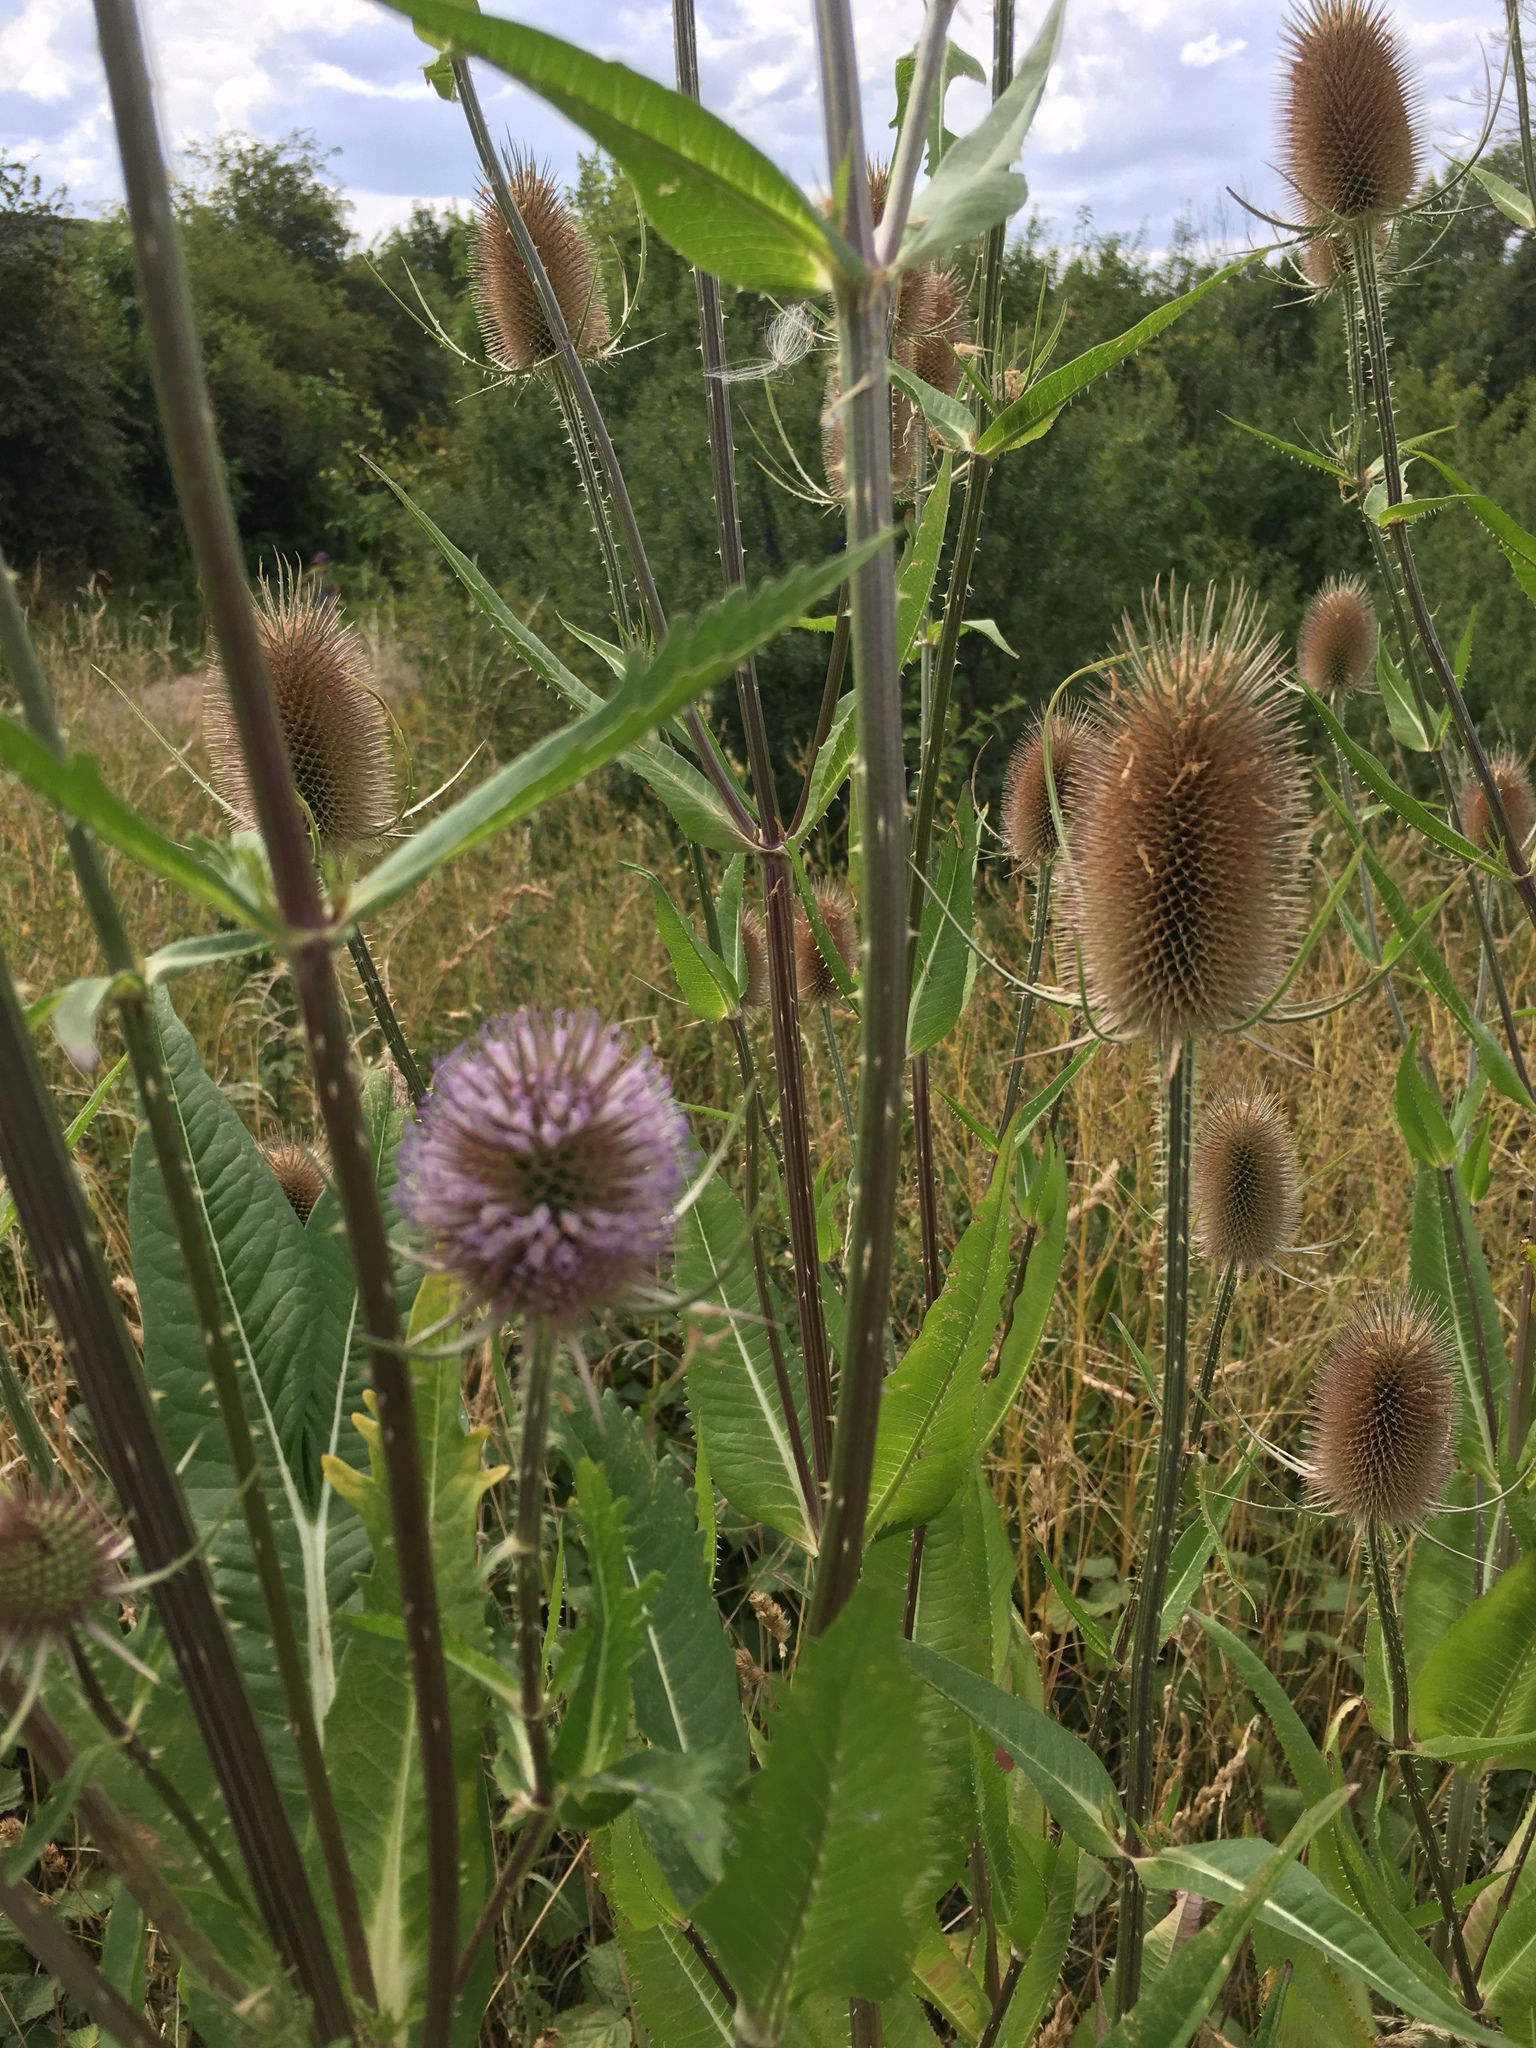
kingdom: Plantae
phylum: Tracheophyta
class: Magnoliopsida
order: Dipsacales
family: Caprifoliaceae
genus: Dipsacus
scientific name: Dipsacus fullonum
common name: Teasel
